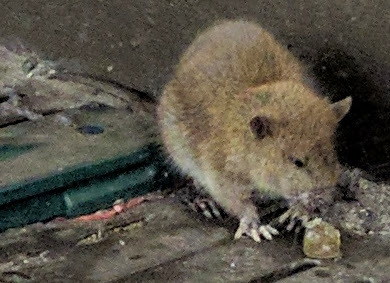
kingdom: Animalia
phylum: Chordata
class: Mammalia
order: Rodentia
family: Muridae
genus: Rattus
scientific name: Rattus norvegicus
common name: Brown rat
